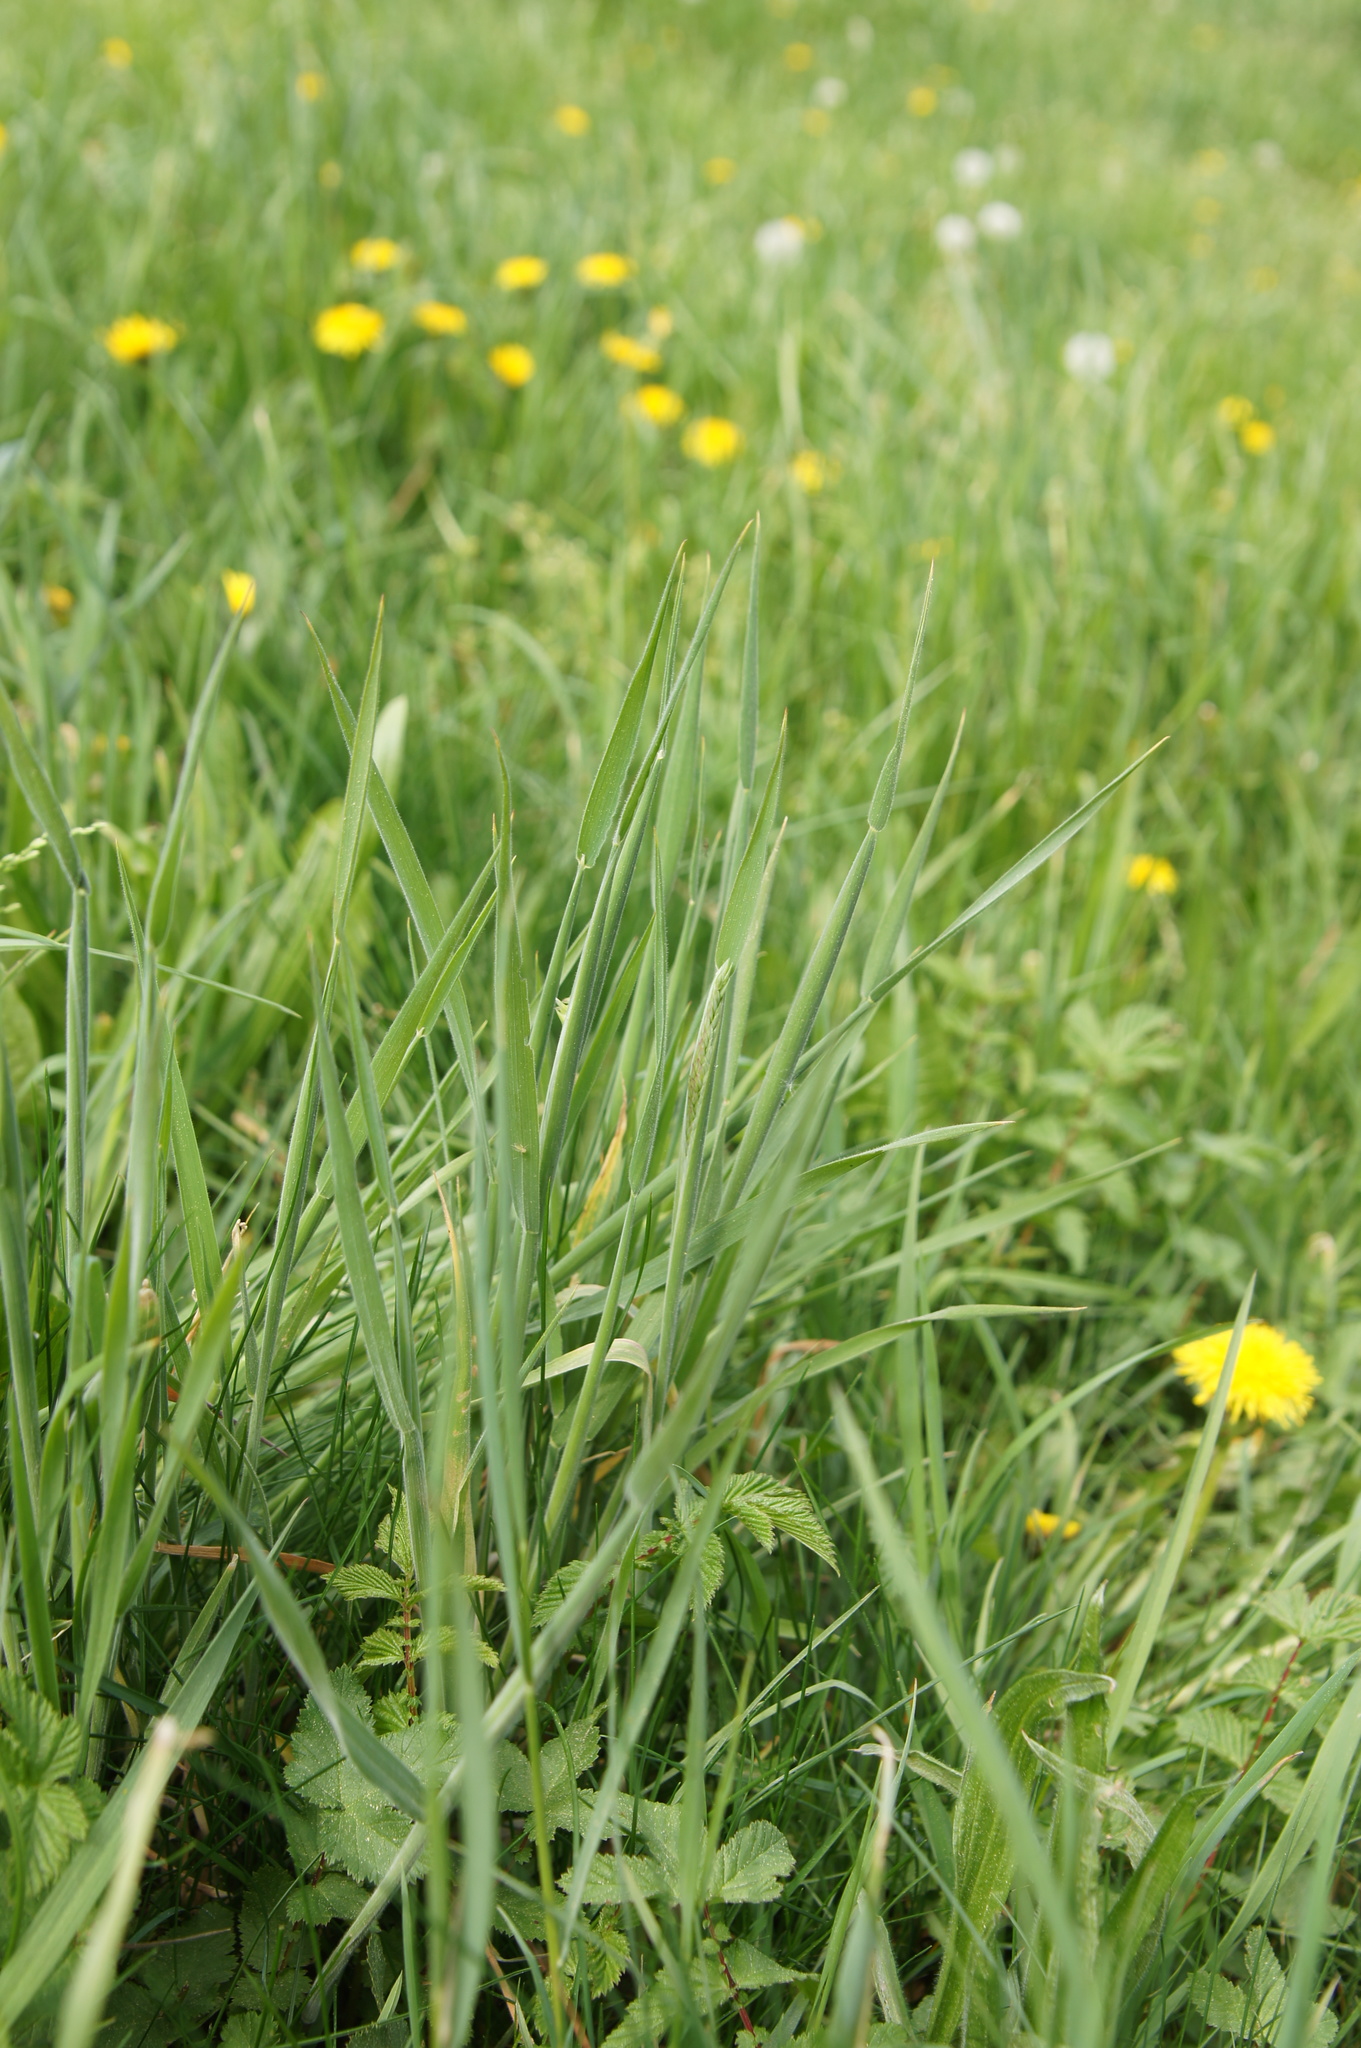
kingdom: Plantae
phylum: Tracheophyta
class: Liliopsida
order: Poales
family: Poaceae
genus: Holcus
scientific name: Holcus lanatus
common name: Yorkshire-fog
